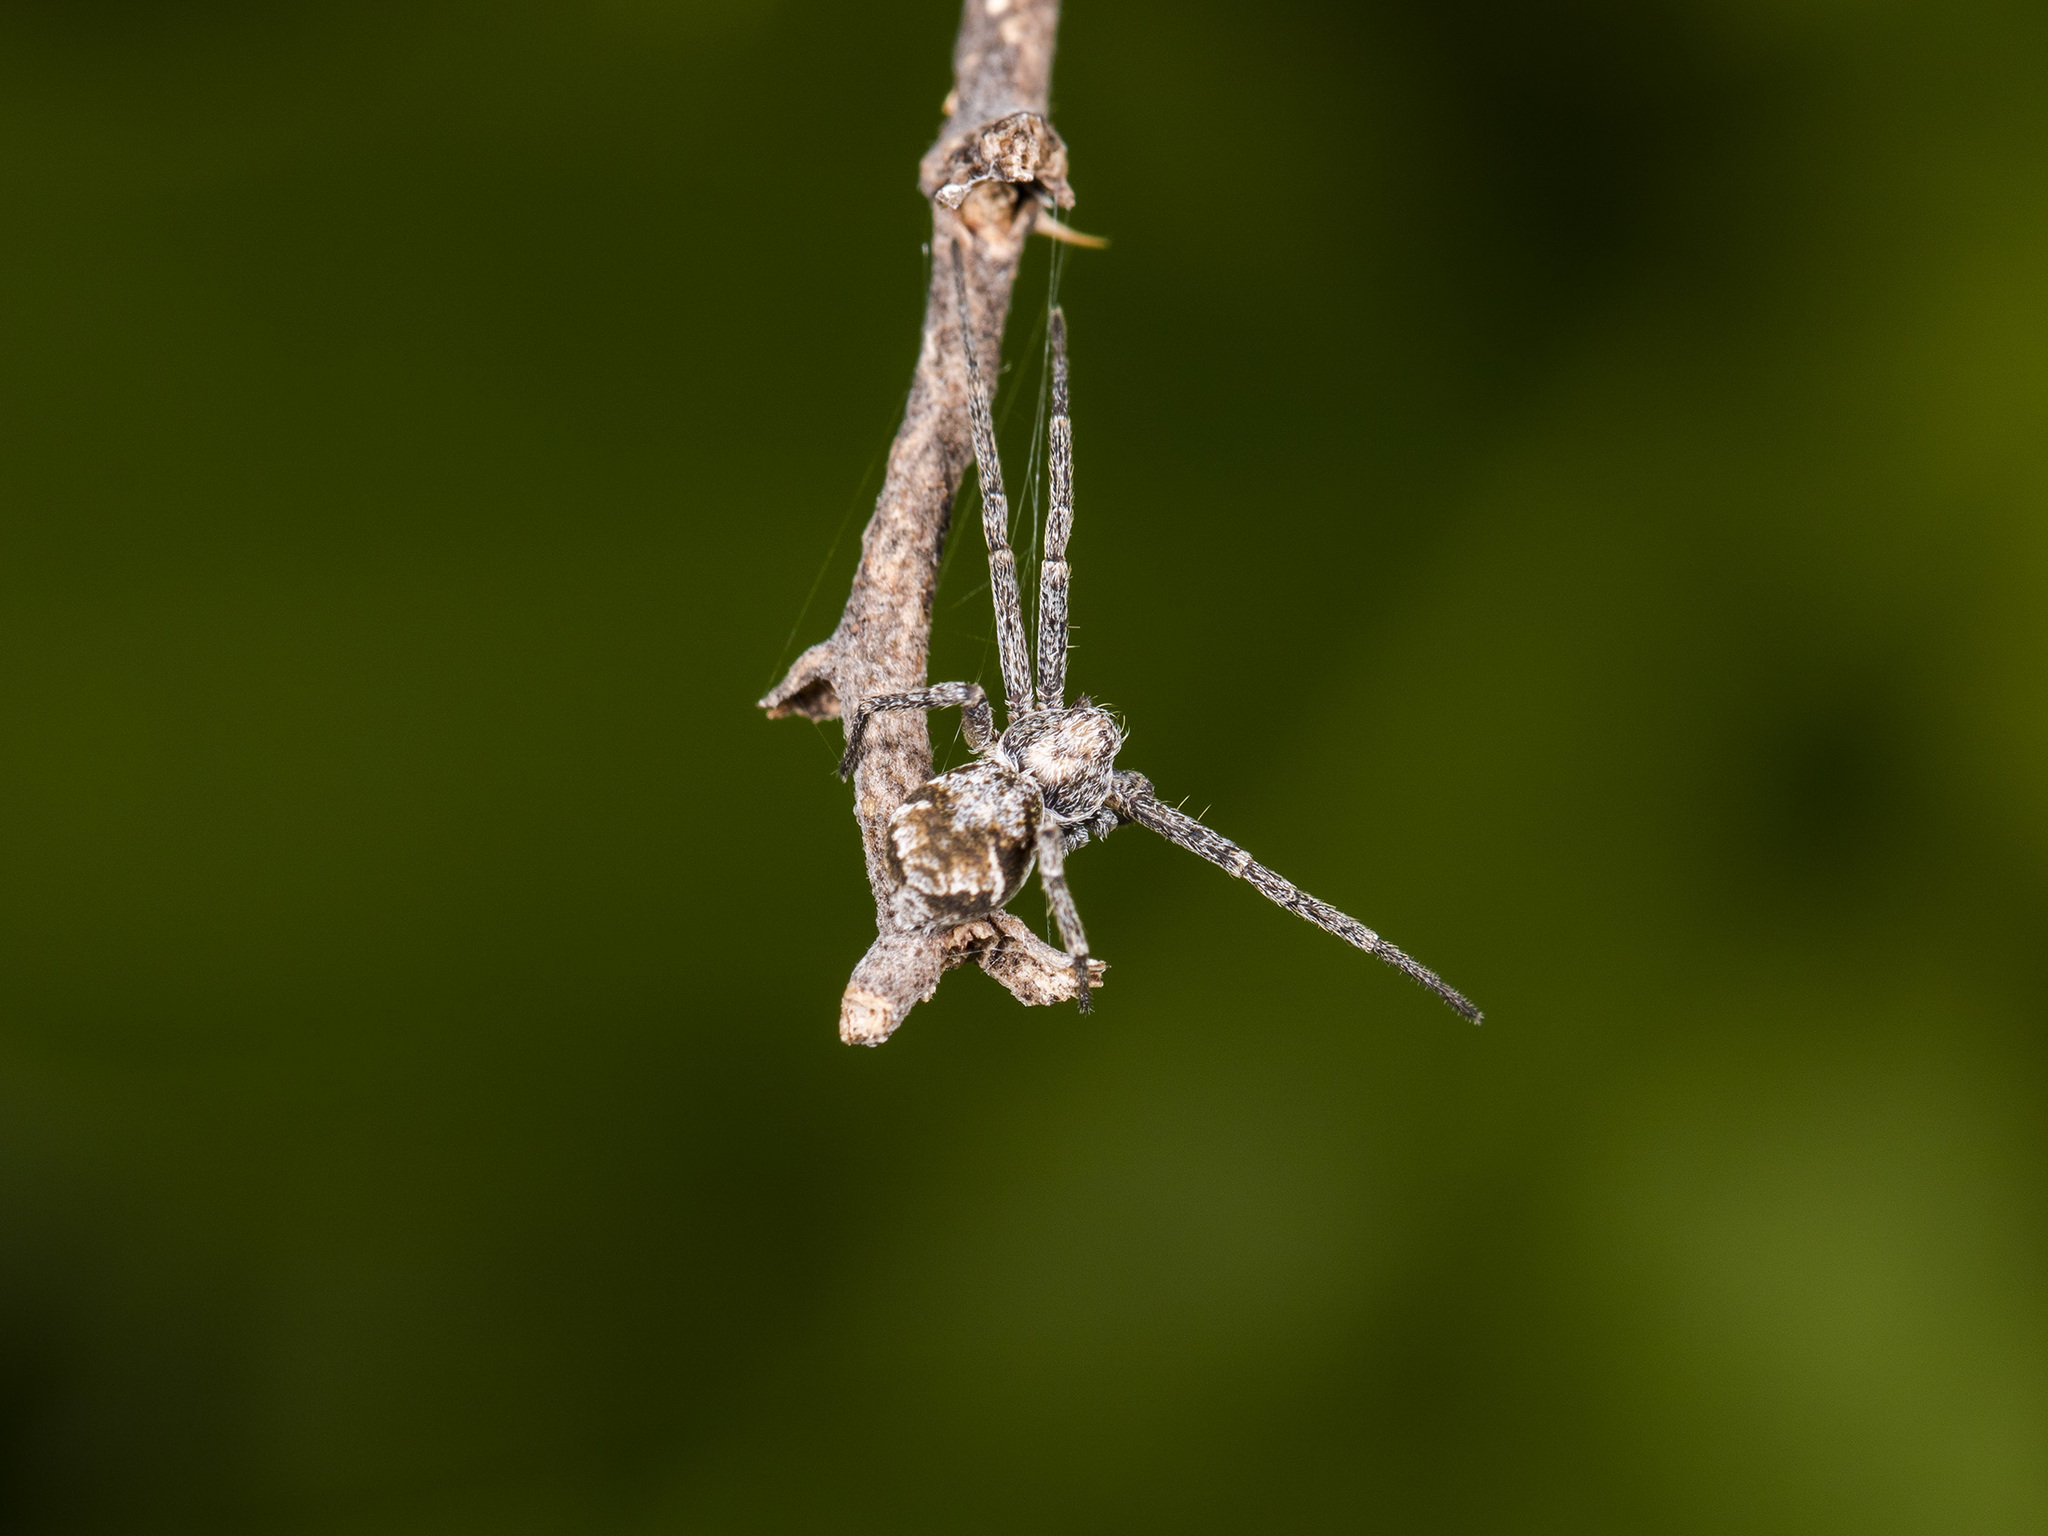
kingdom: Animalia
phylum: Arthropoda
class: Arachnida
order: Araneae
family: Philodromidae
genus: Rhysodromus
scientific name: Rhysodromus pictus
